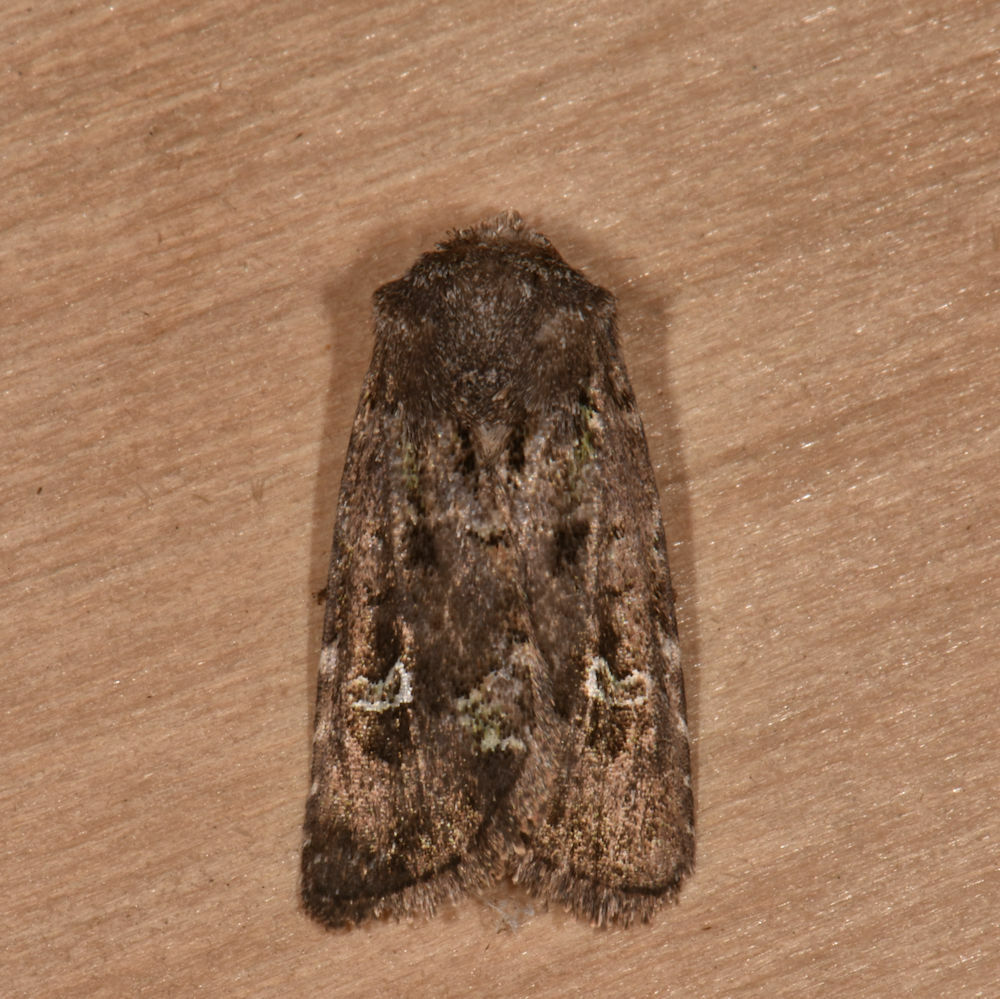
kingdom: Animalia
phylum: Arthropoda
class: Insecta
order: Lepidoptera
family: Noctuidae
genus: Lacinipolia
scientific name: Lacinipolia renigera
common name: Kidney-spotted minor
